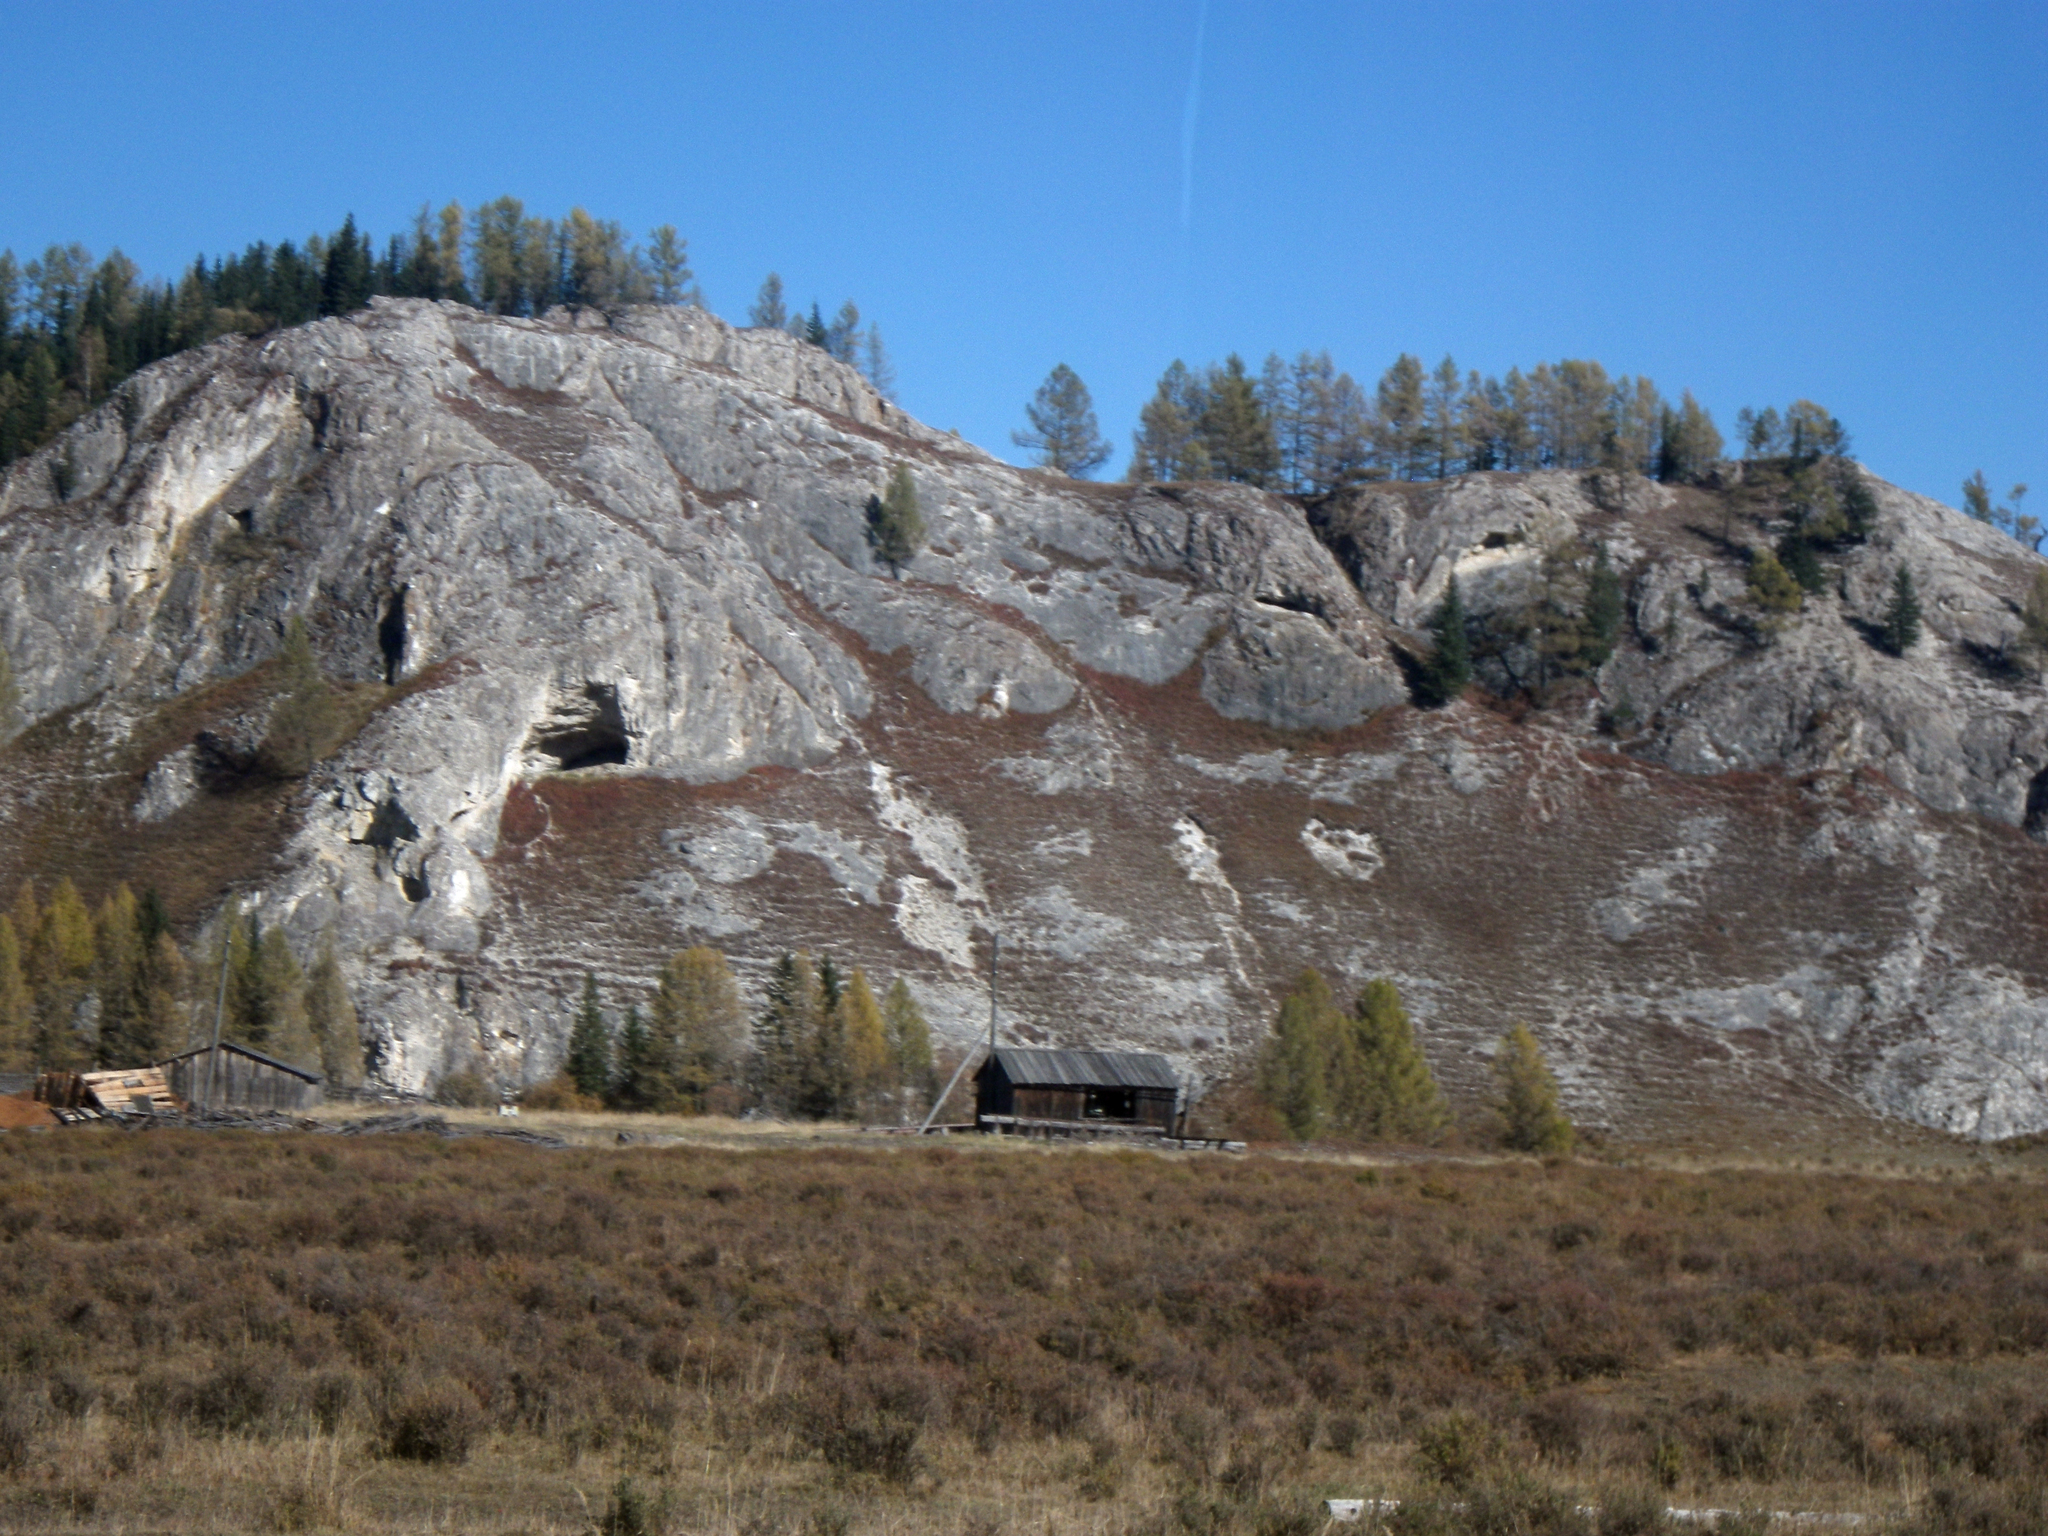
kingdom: Plantae
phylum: Tracheophyta
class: Pinopsida
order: Pinales
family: Pinaceae
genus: Picea
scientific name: Picea obovata
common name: Siberian spruce
